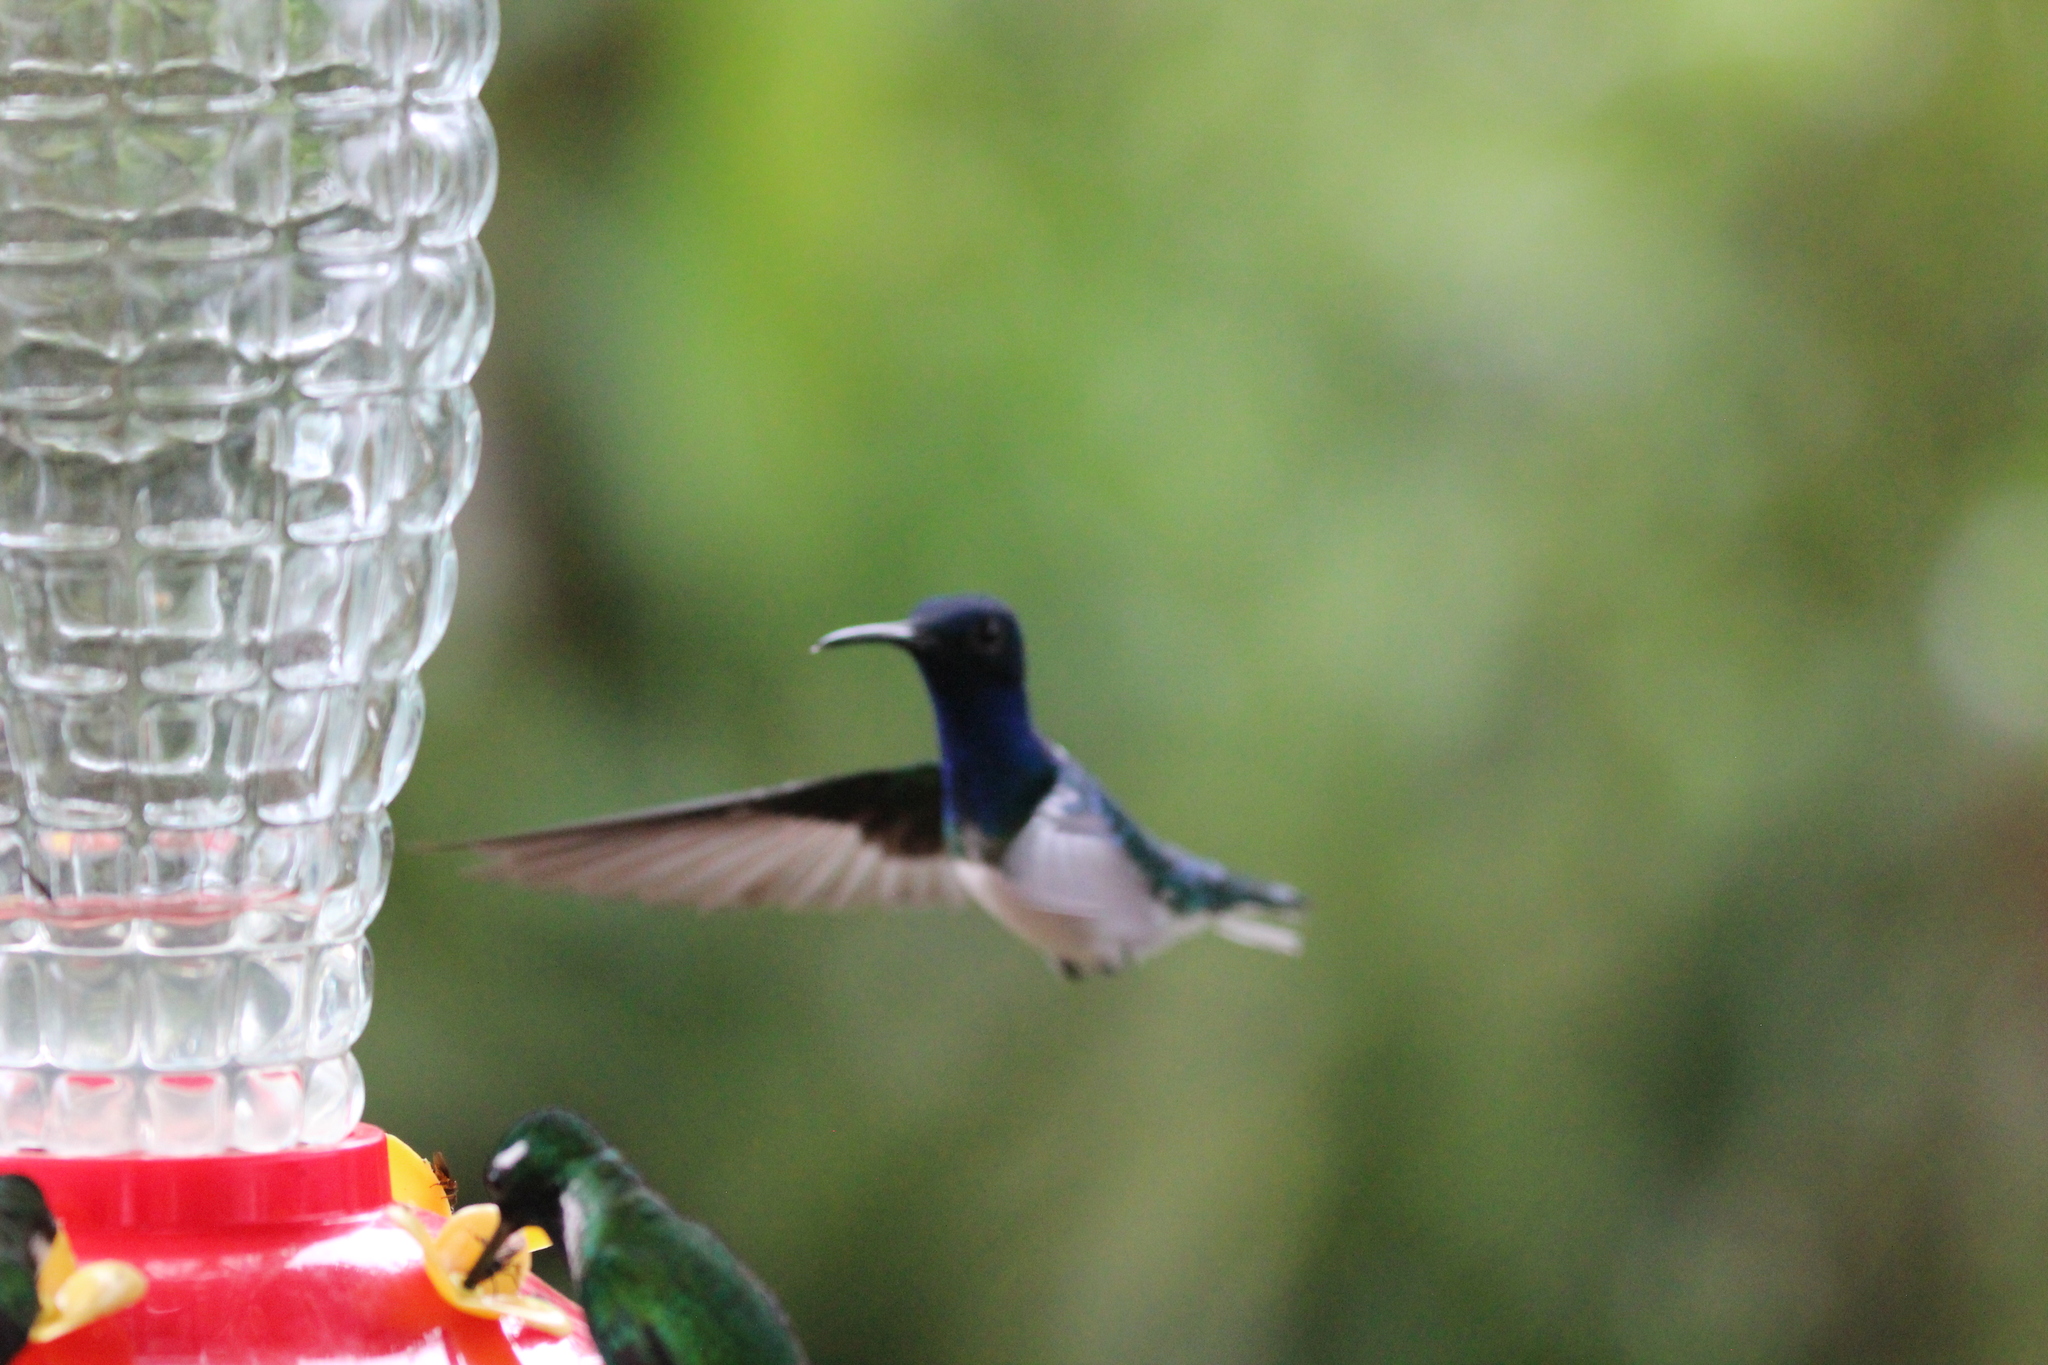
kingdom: Animalia
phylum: Chordata
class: Aves
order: Apodiformes
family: Trochilidae
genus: Florisuga
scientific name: Florisuga mellivora
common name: White-necked jacobin
